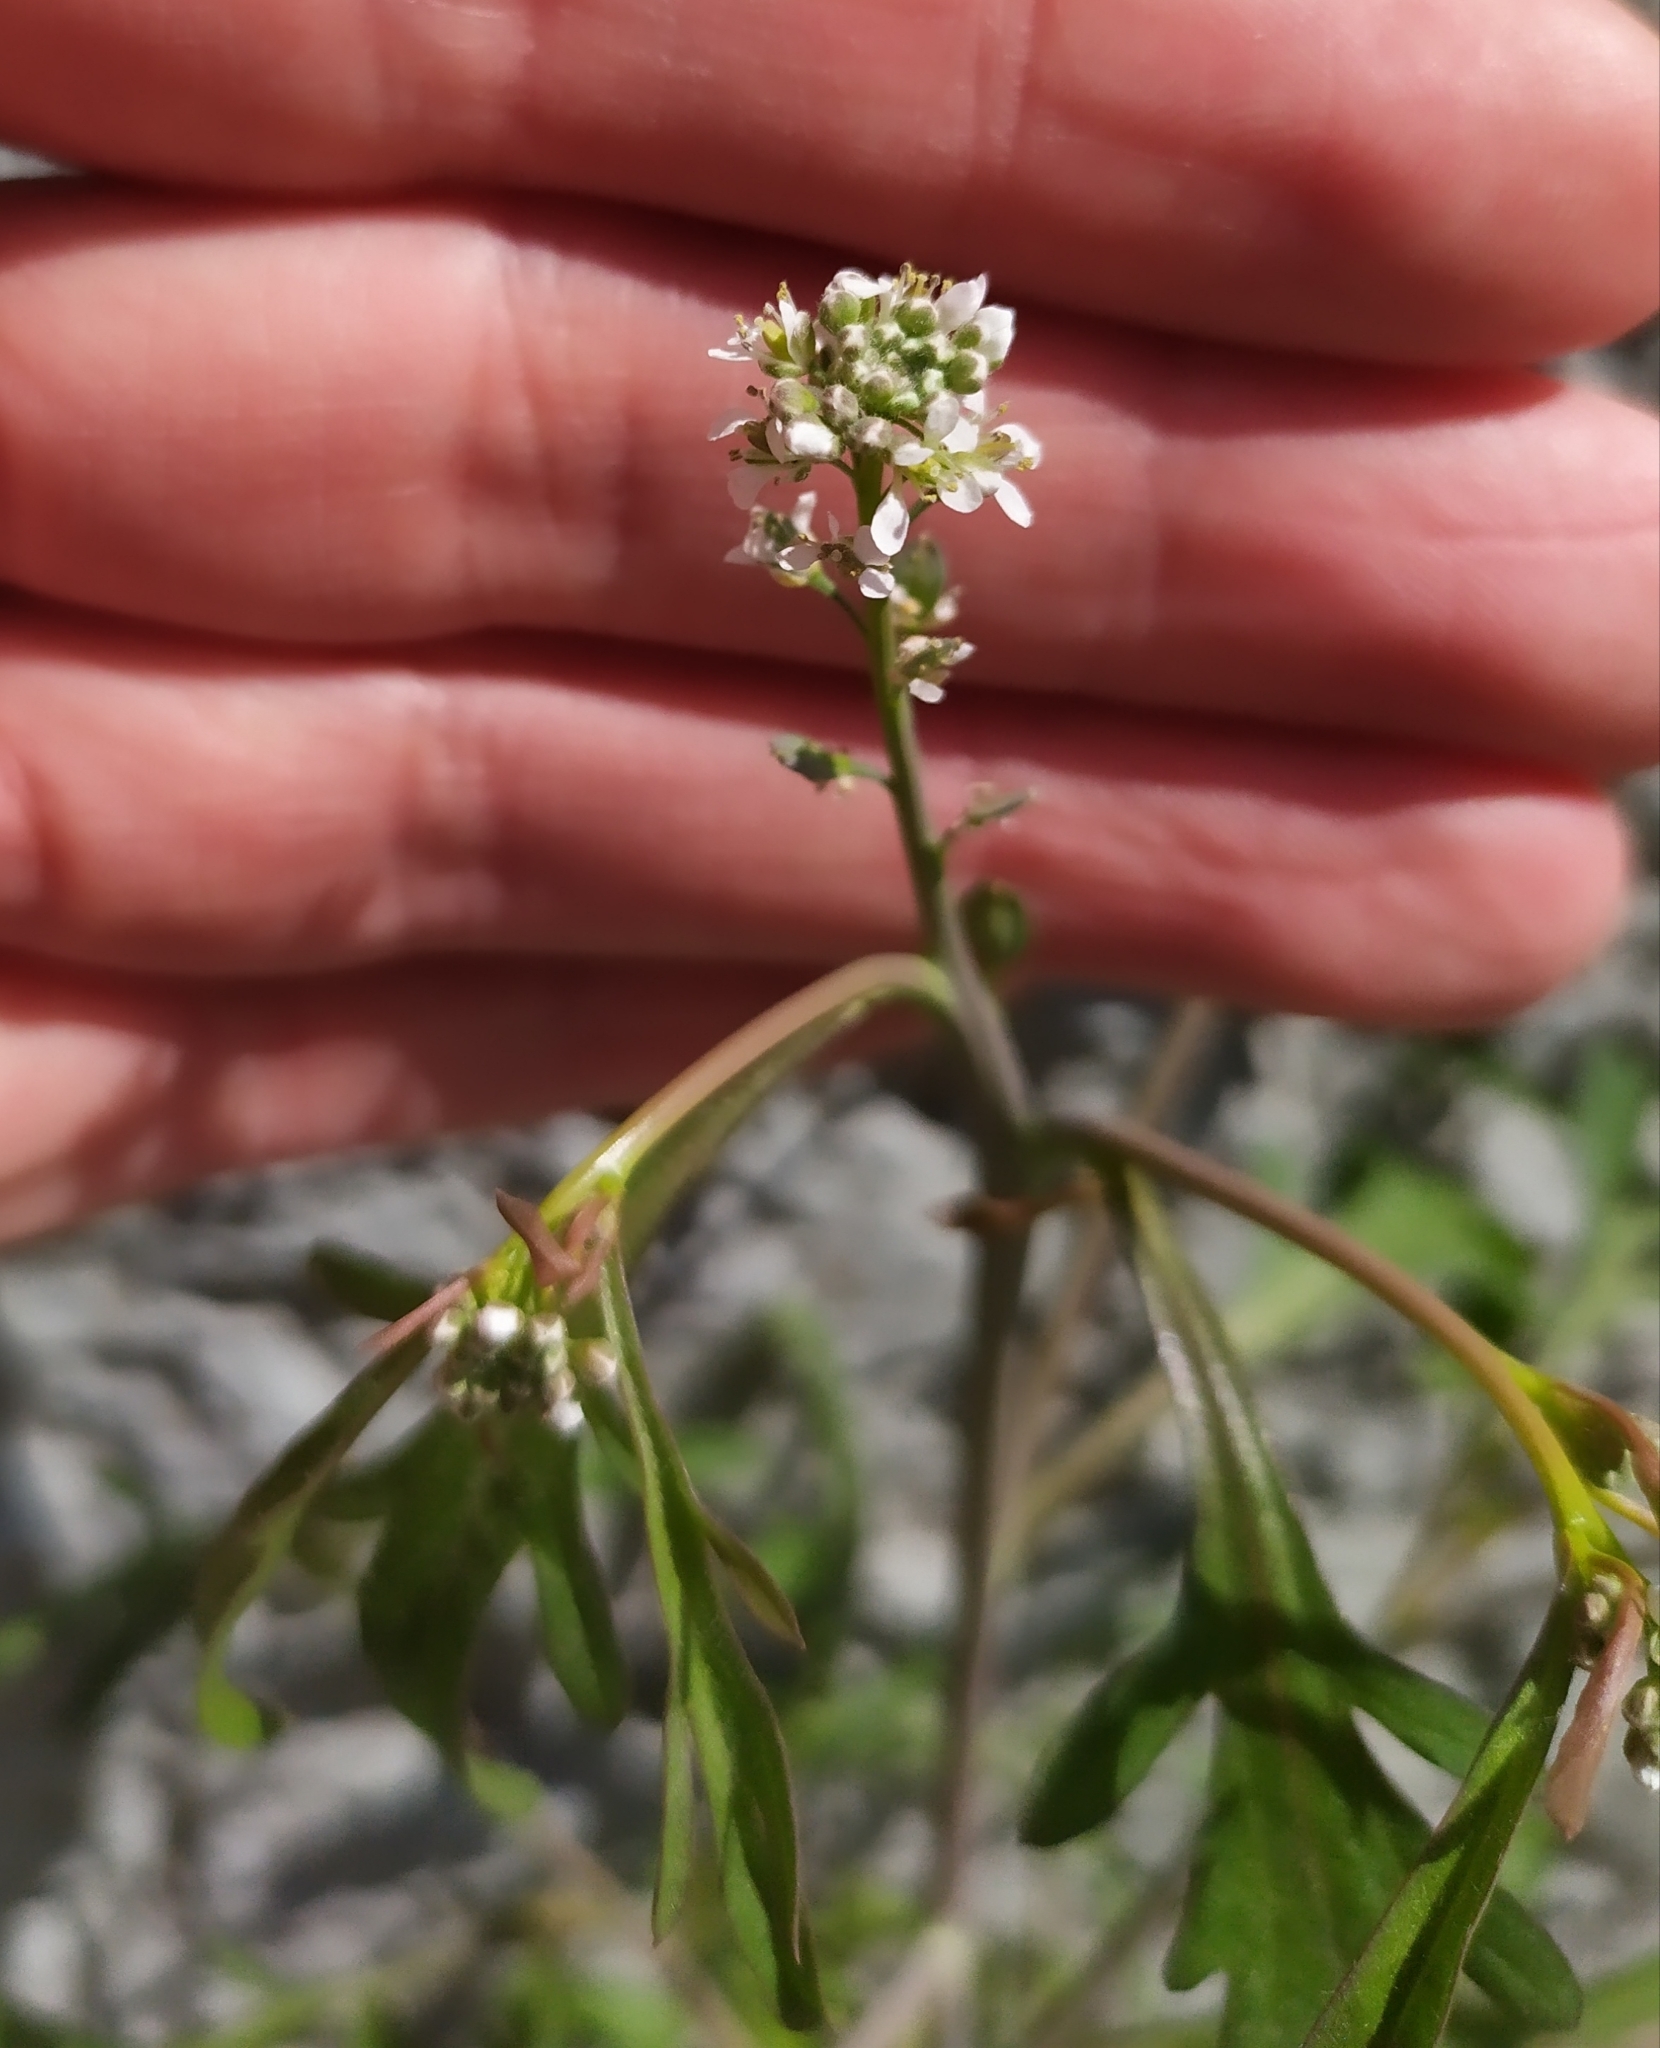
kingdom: Plantae
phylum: Tracheophyta
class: Magnoliopsida
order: Brassicales
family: Brassicaceae
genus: Lepidium
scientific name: Lepidium sativum
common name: Garden cress
